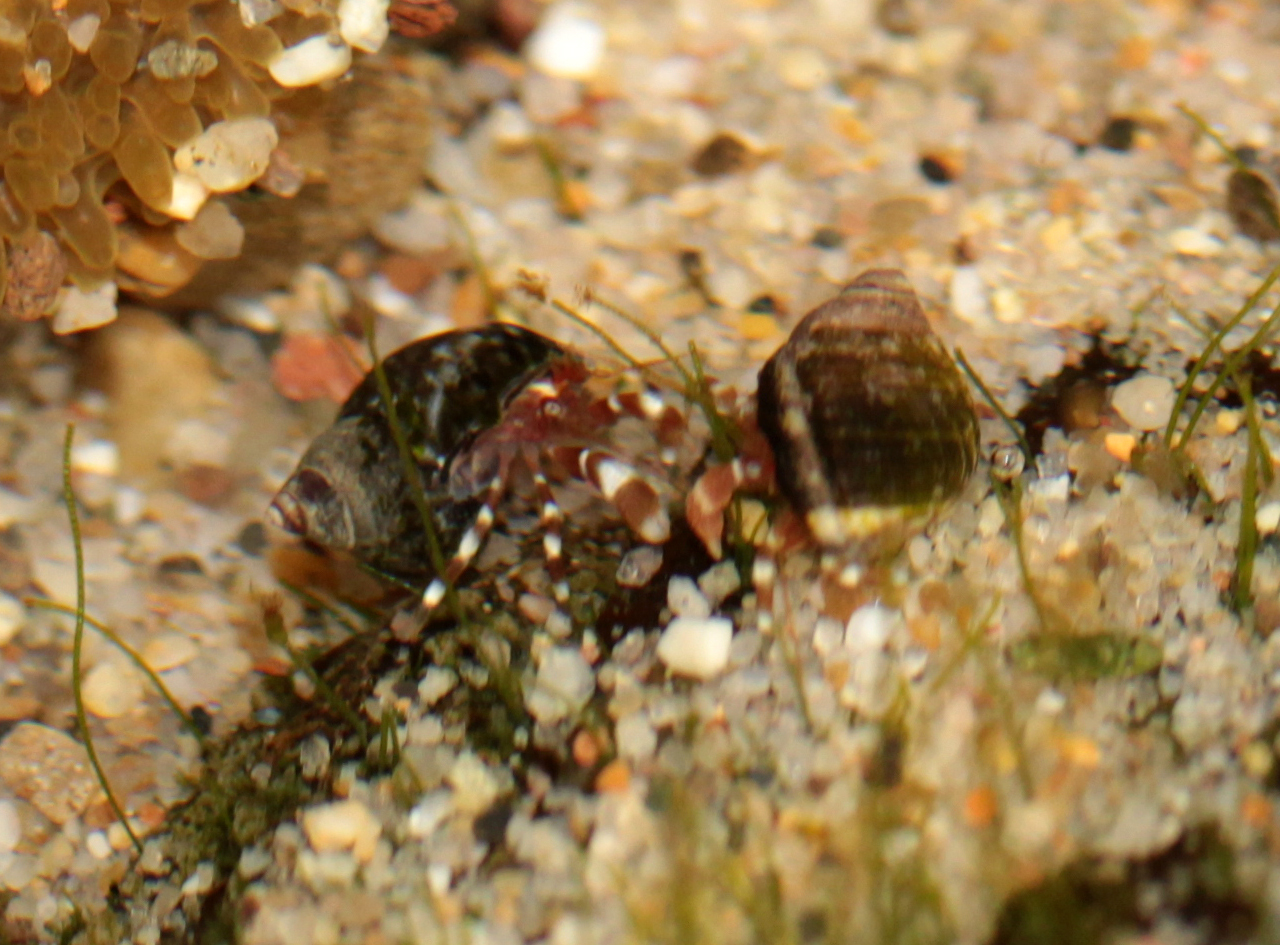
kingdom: Animalia
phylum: Arthropoda
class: Malacostraca
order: Decapoda
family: Paguridae
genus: Pagurus
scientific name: Pagurus samuelis
